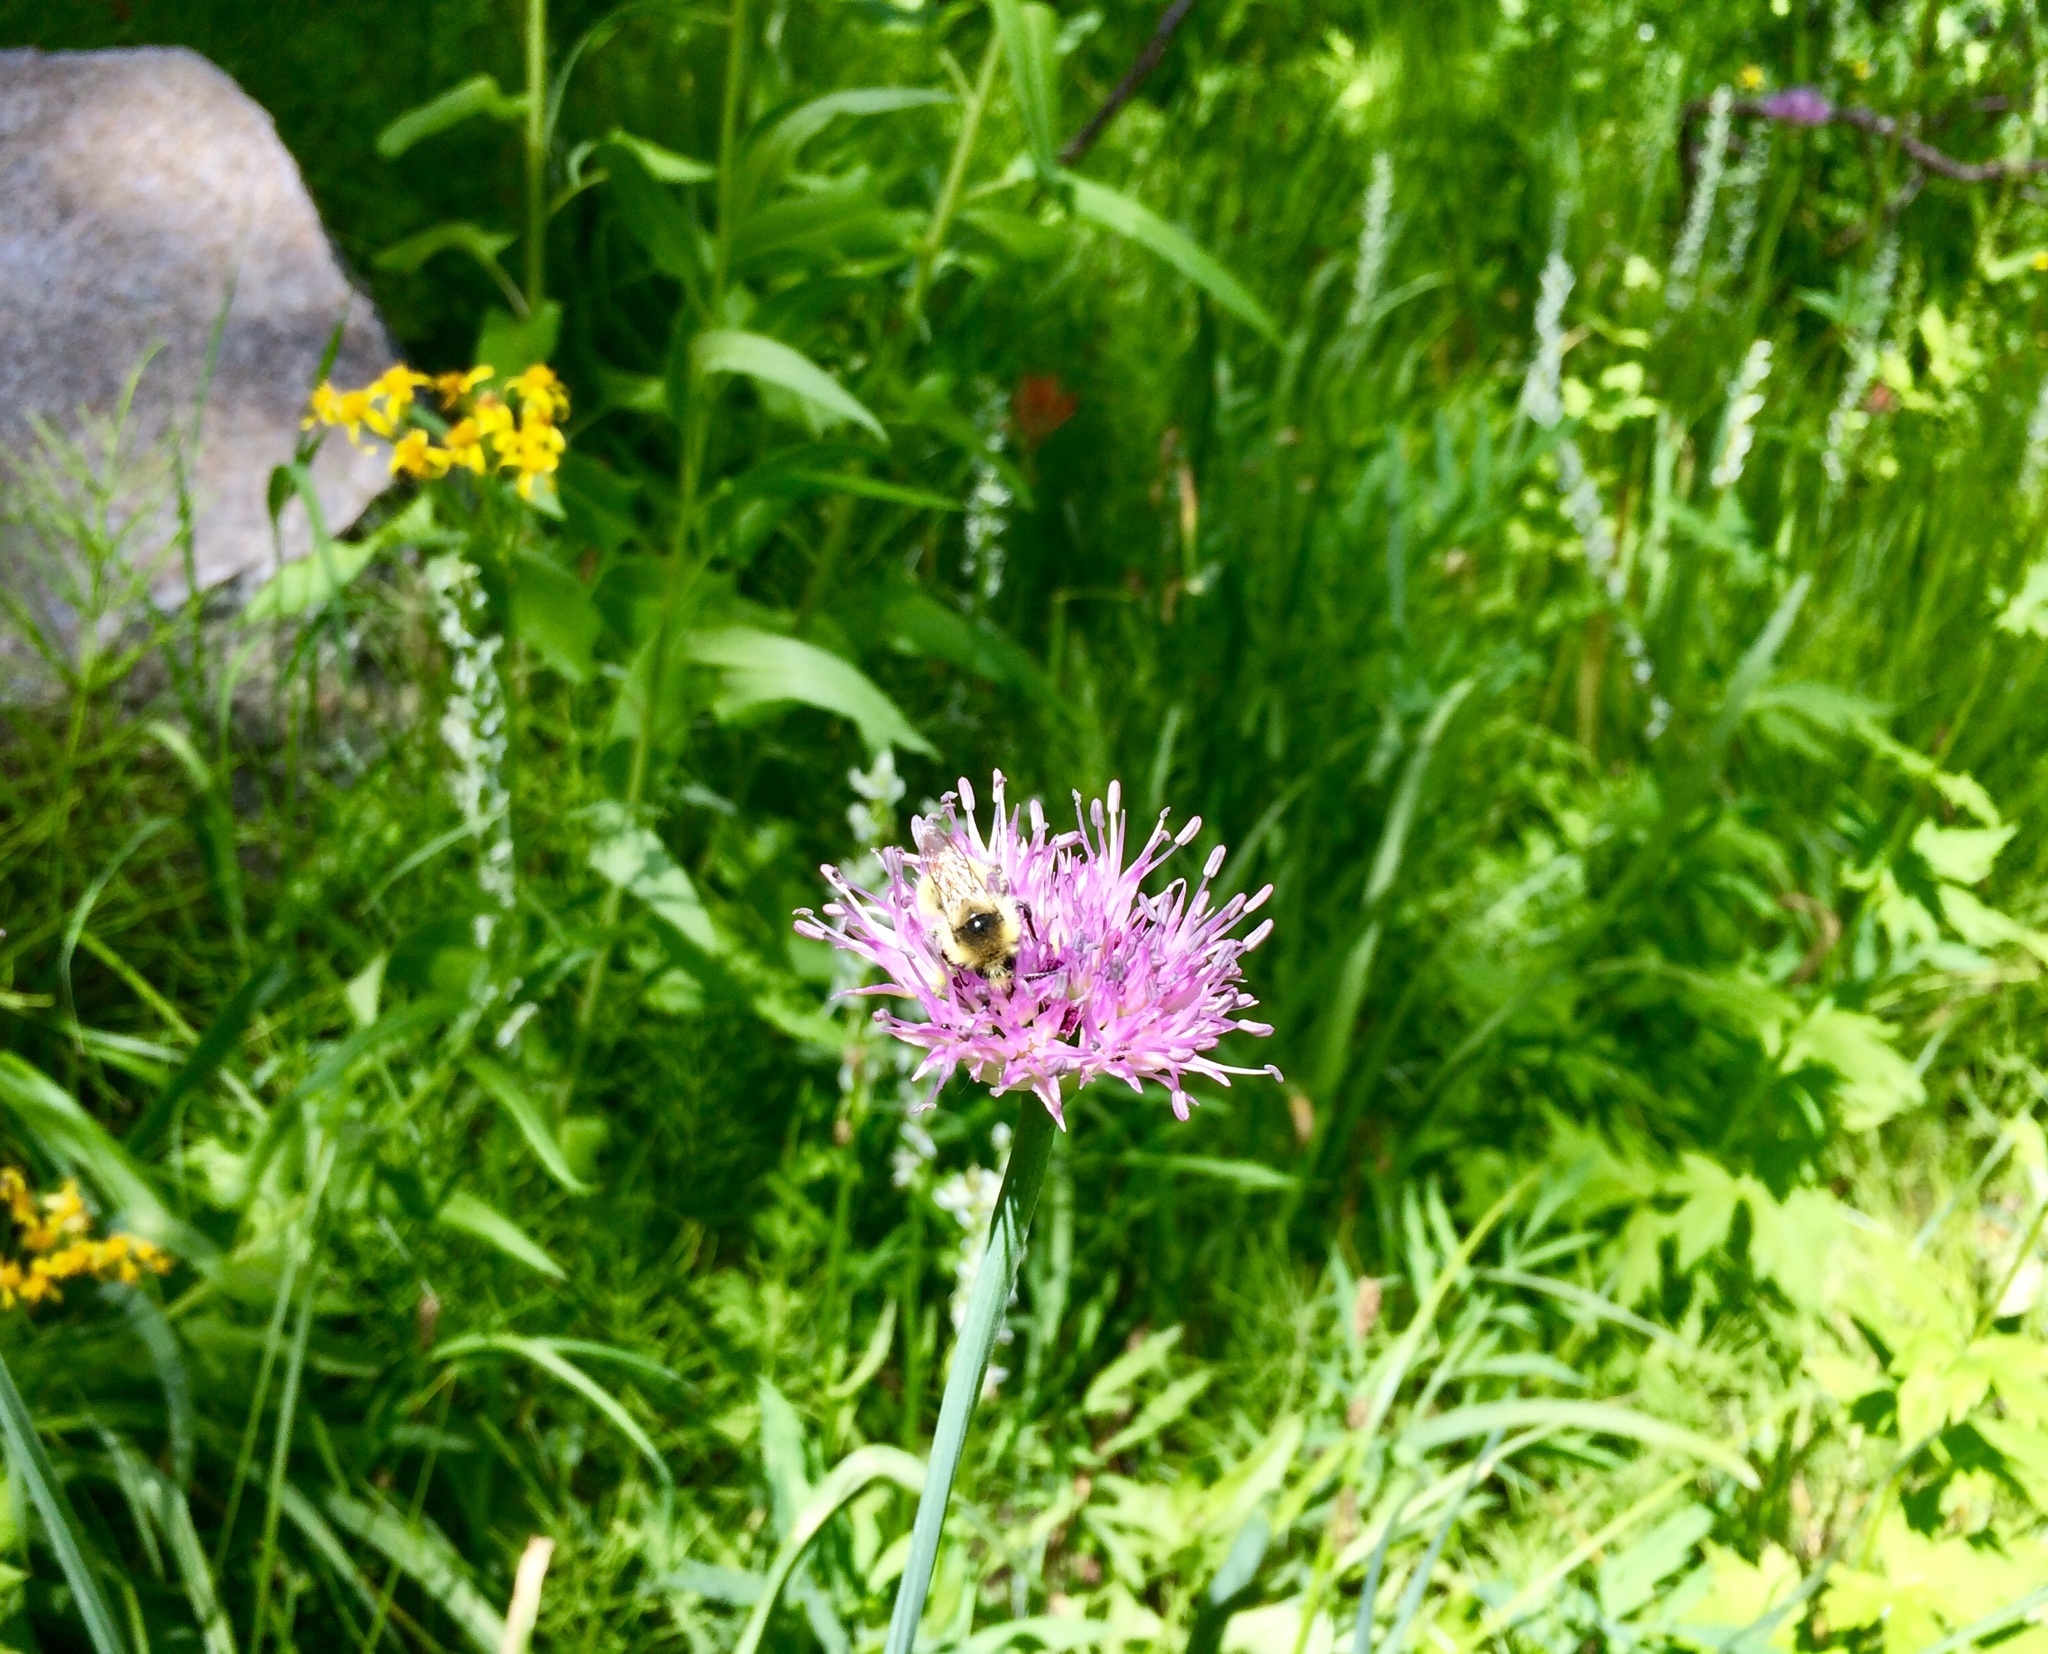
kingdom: Plantae
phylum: Tracheophyta
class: Liliopsida
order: Asparagales
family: Amaryllidaceae
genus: Allium
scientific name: Allium validum
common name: Pacific mountain onion
